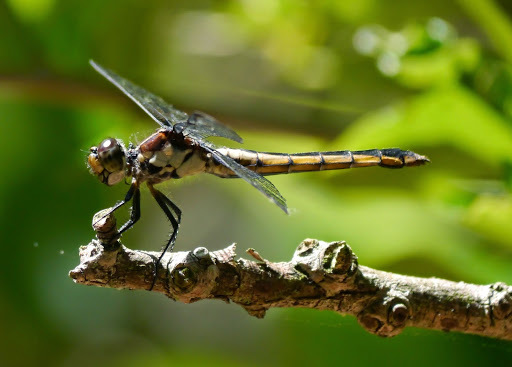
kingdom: Animalia
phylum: Arthropoda
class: Insecta
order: Odonata
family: Libellulidae
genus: Libellula
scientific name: Libellula incesta
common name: Slaty skimmer
